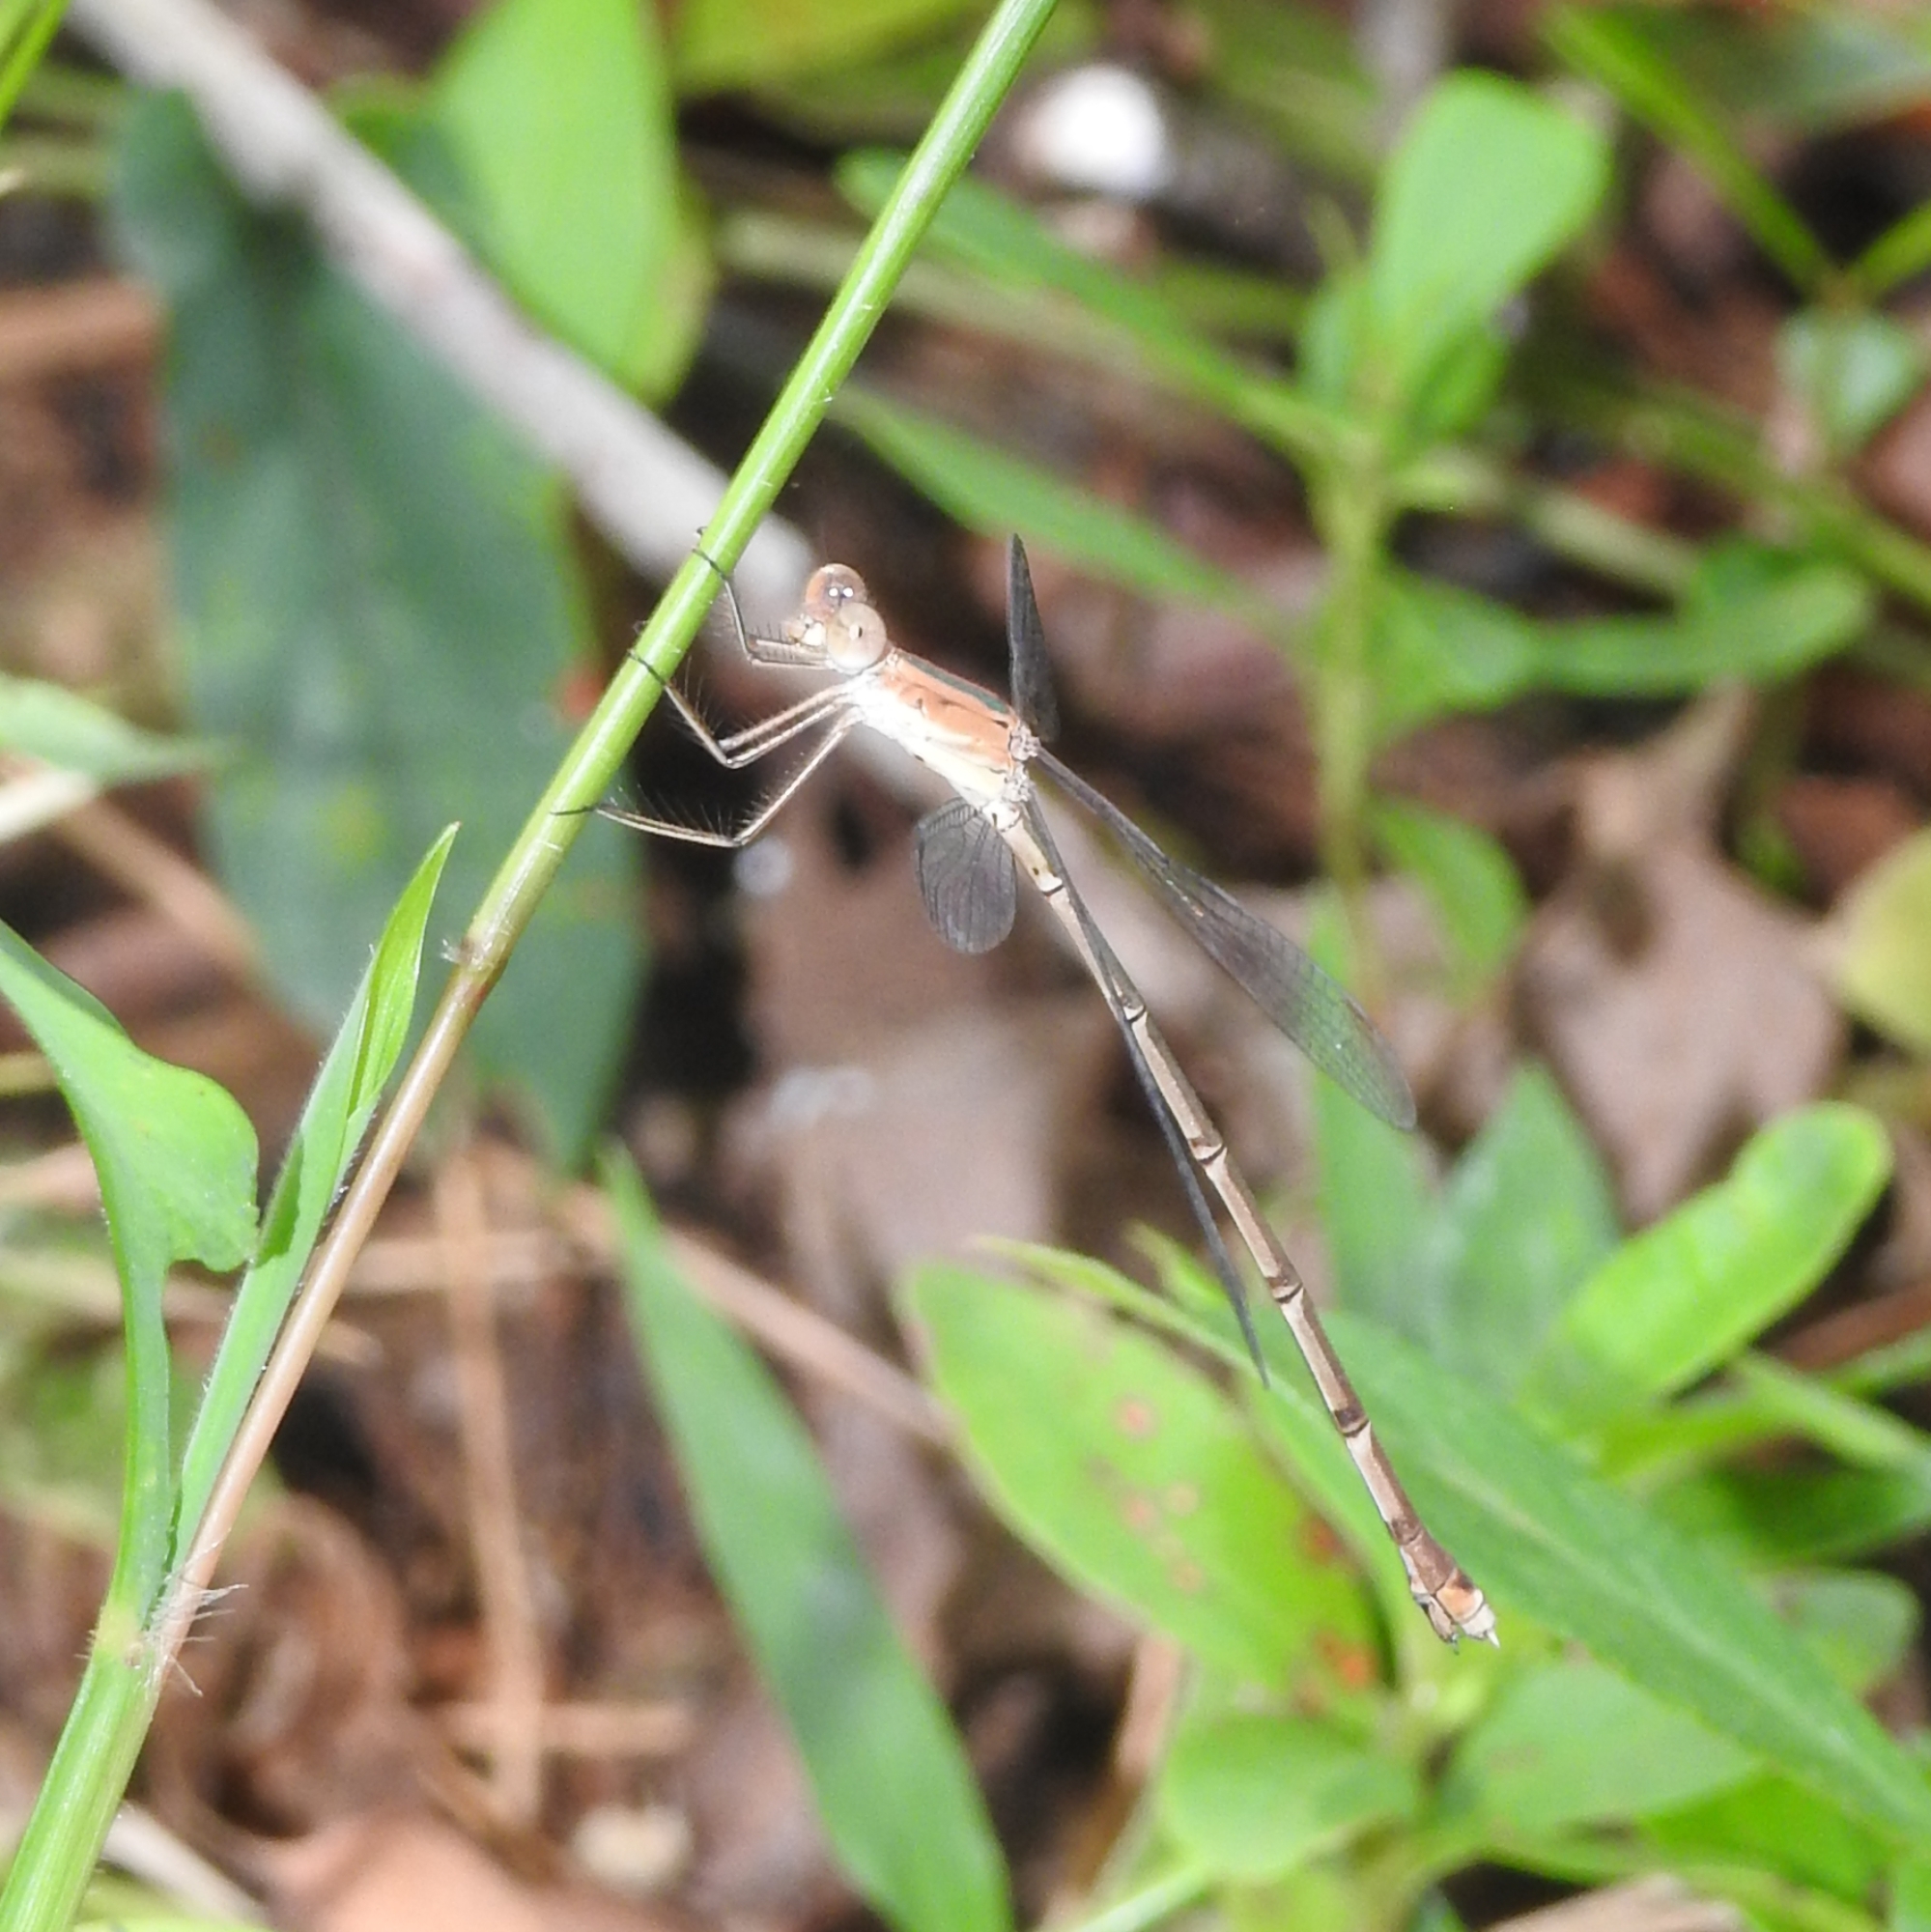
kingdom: Animalia
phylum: Arthropoda
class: Insecta
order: Odonata
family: Lestidae
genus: Lestes
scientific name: Lestes elatus
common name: Emerald spreadwing
